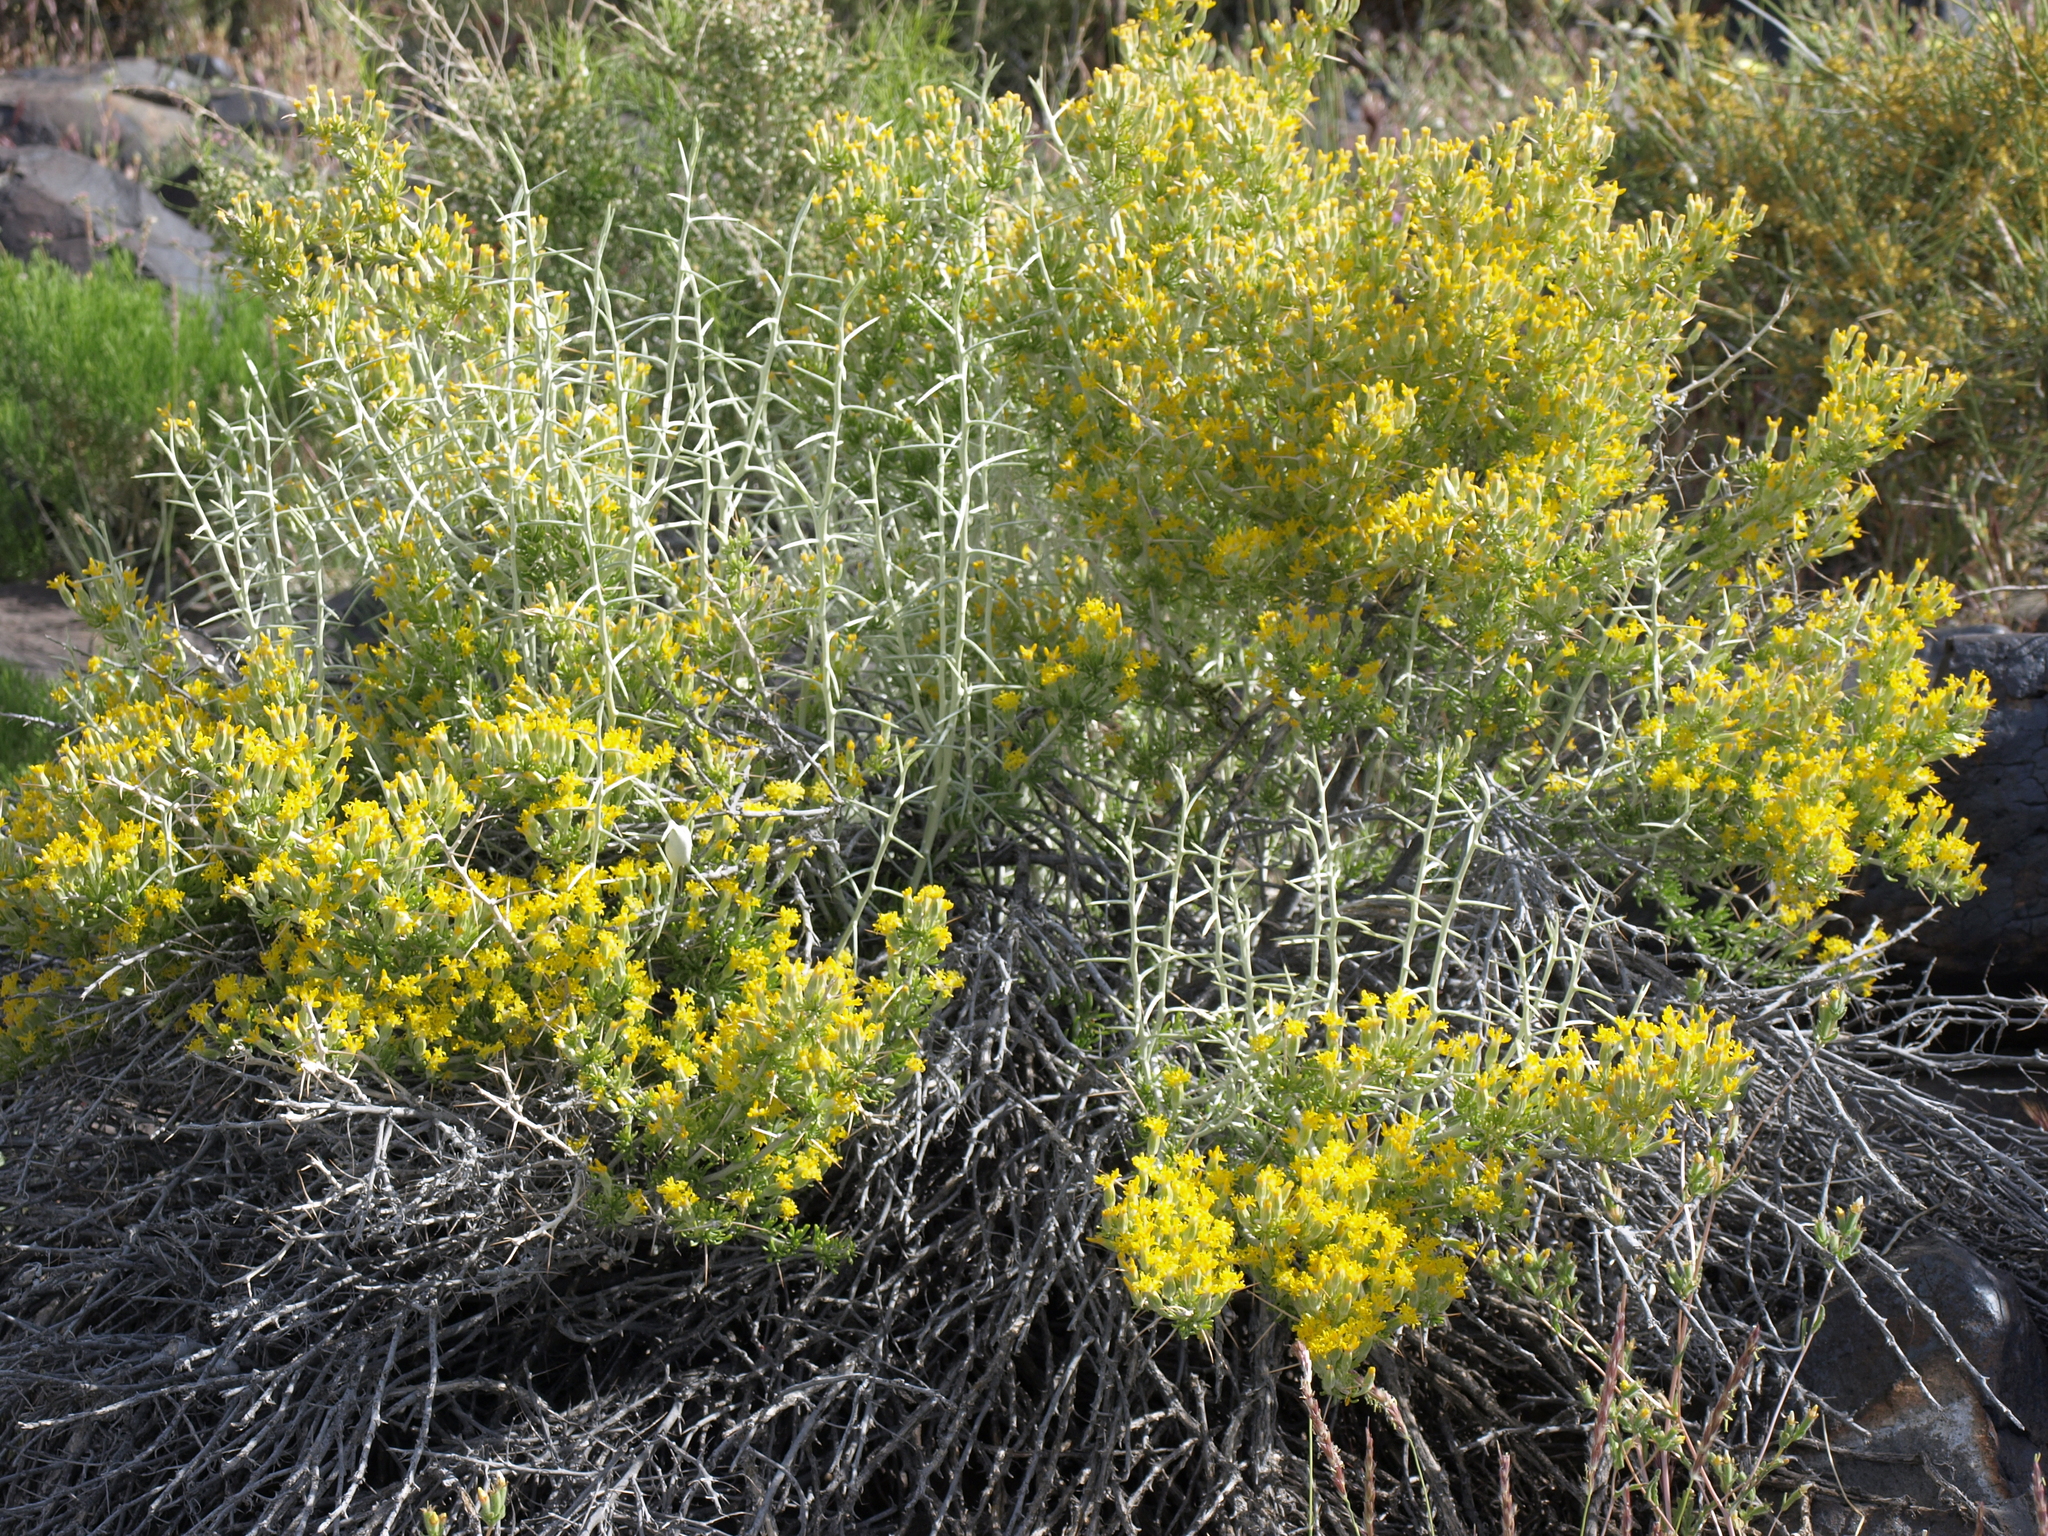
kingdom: Plantae
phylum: Tracheophyta
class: Magnoliopsida
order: Asterales
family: Asteraceae
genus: Tetradymia
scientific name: Tetradymia axillaris
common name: Long-spine horsebrush
